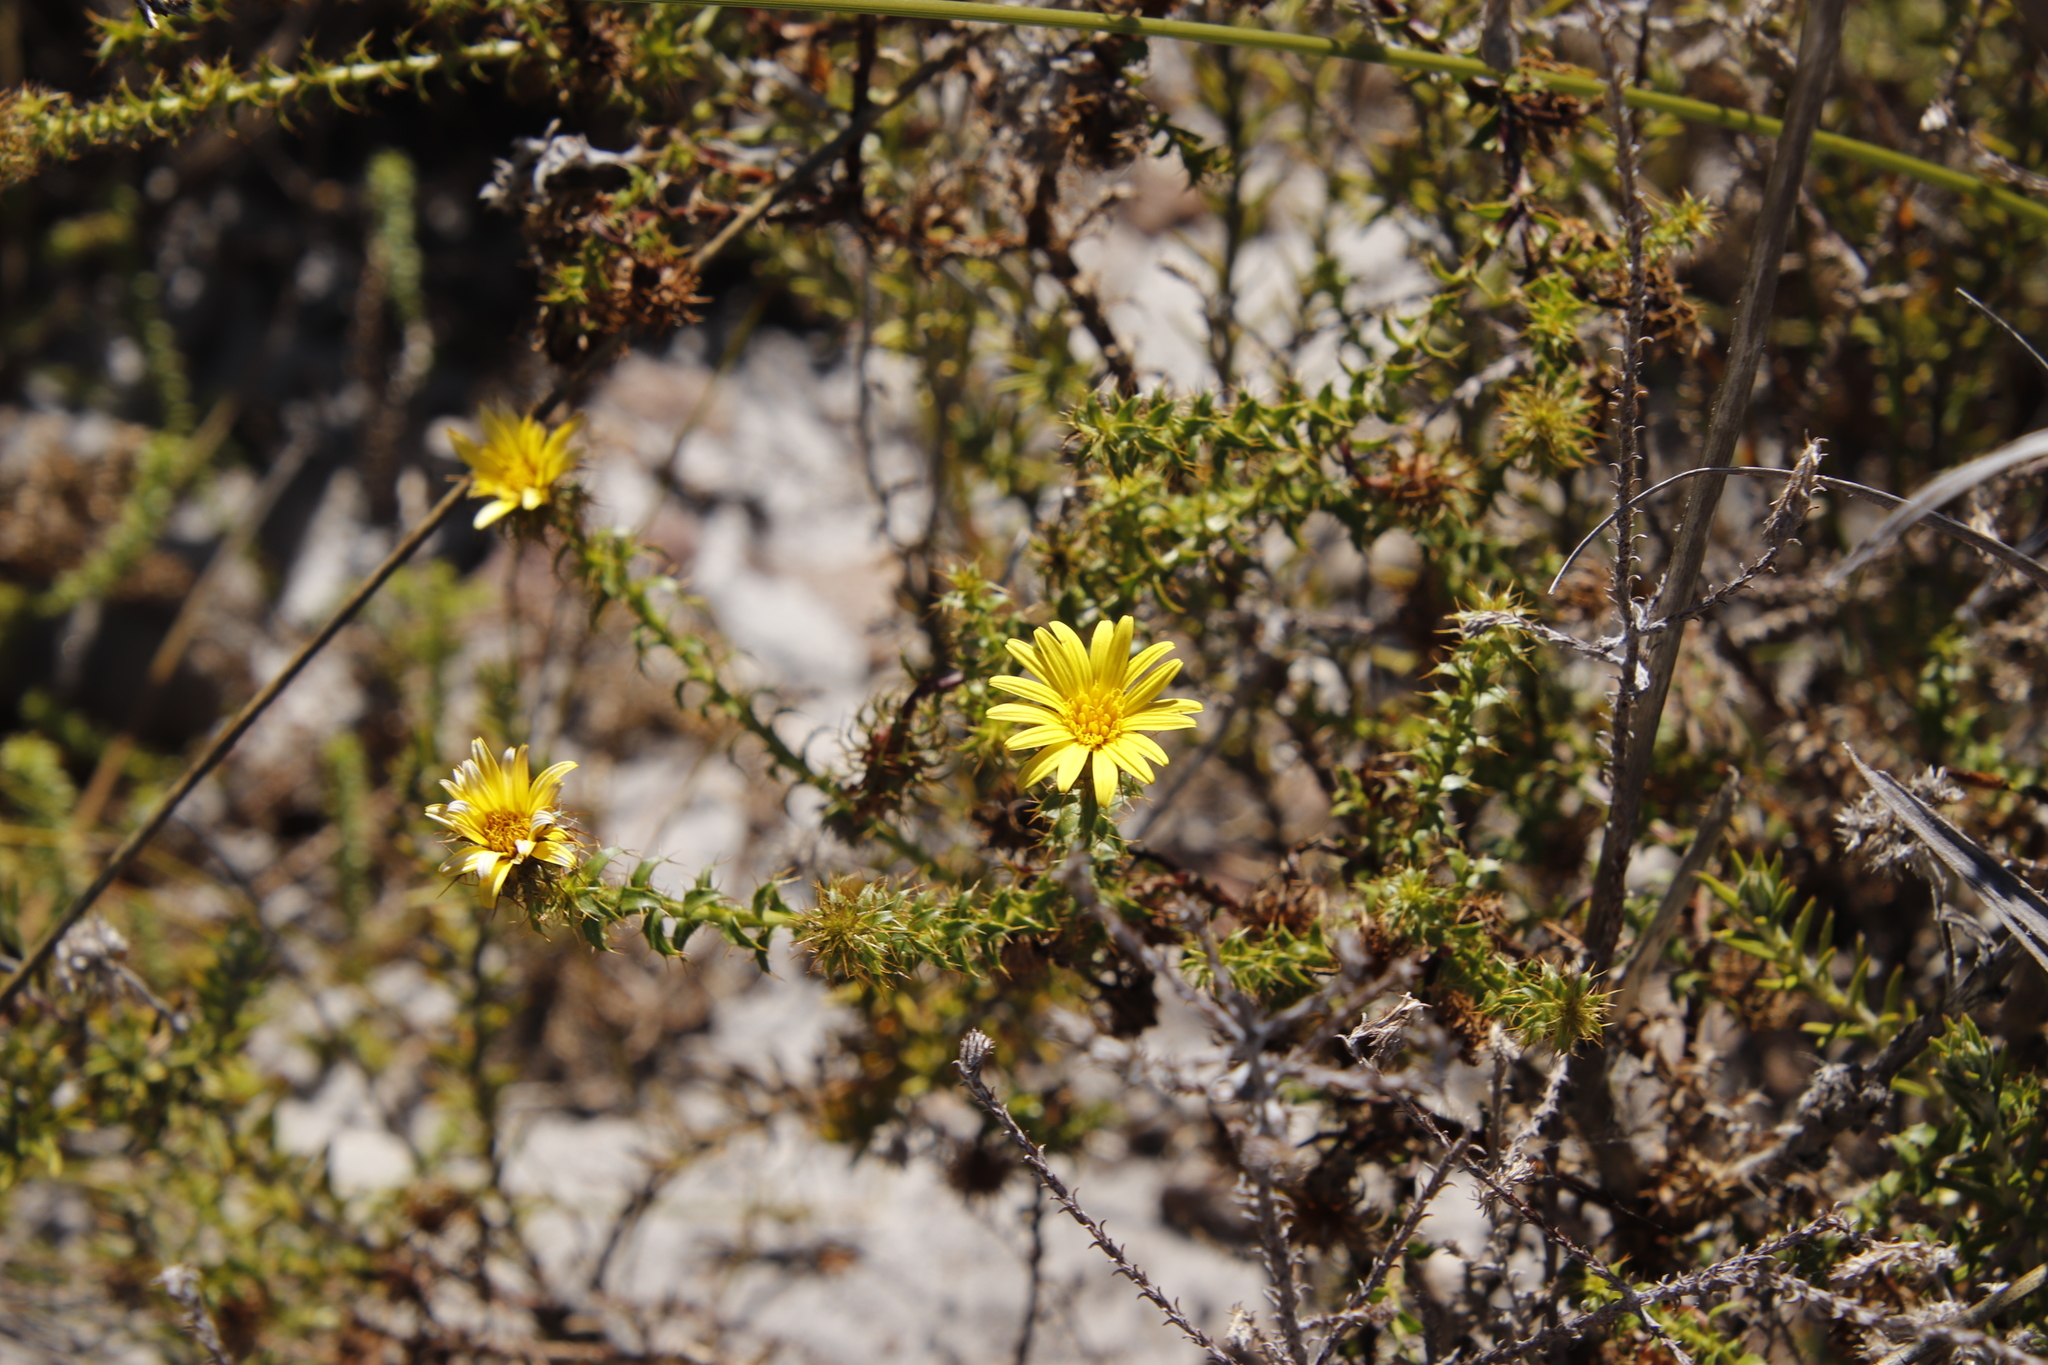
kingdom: Plantae
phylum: Tracheophyta
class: Magnoliopsida
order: Asterales
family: Asteraceae
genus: Cullumia
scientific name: Cullumia setosa
